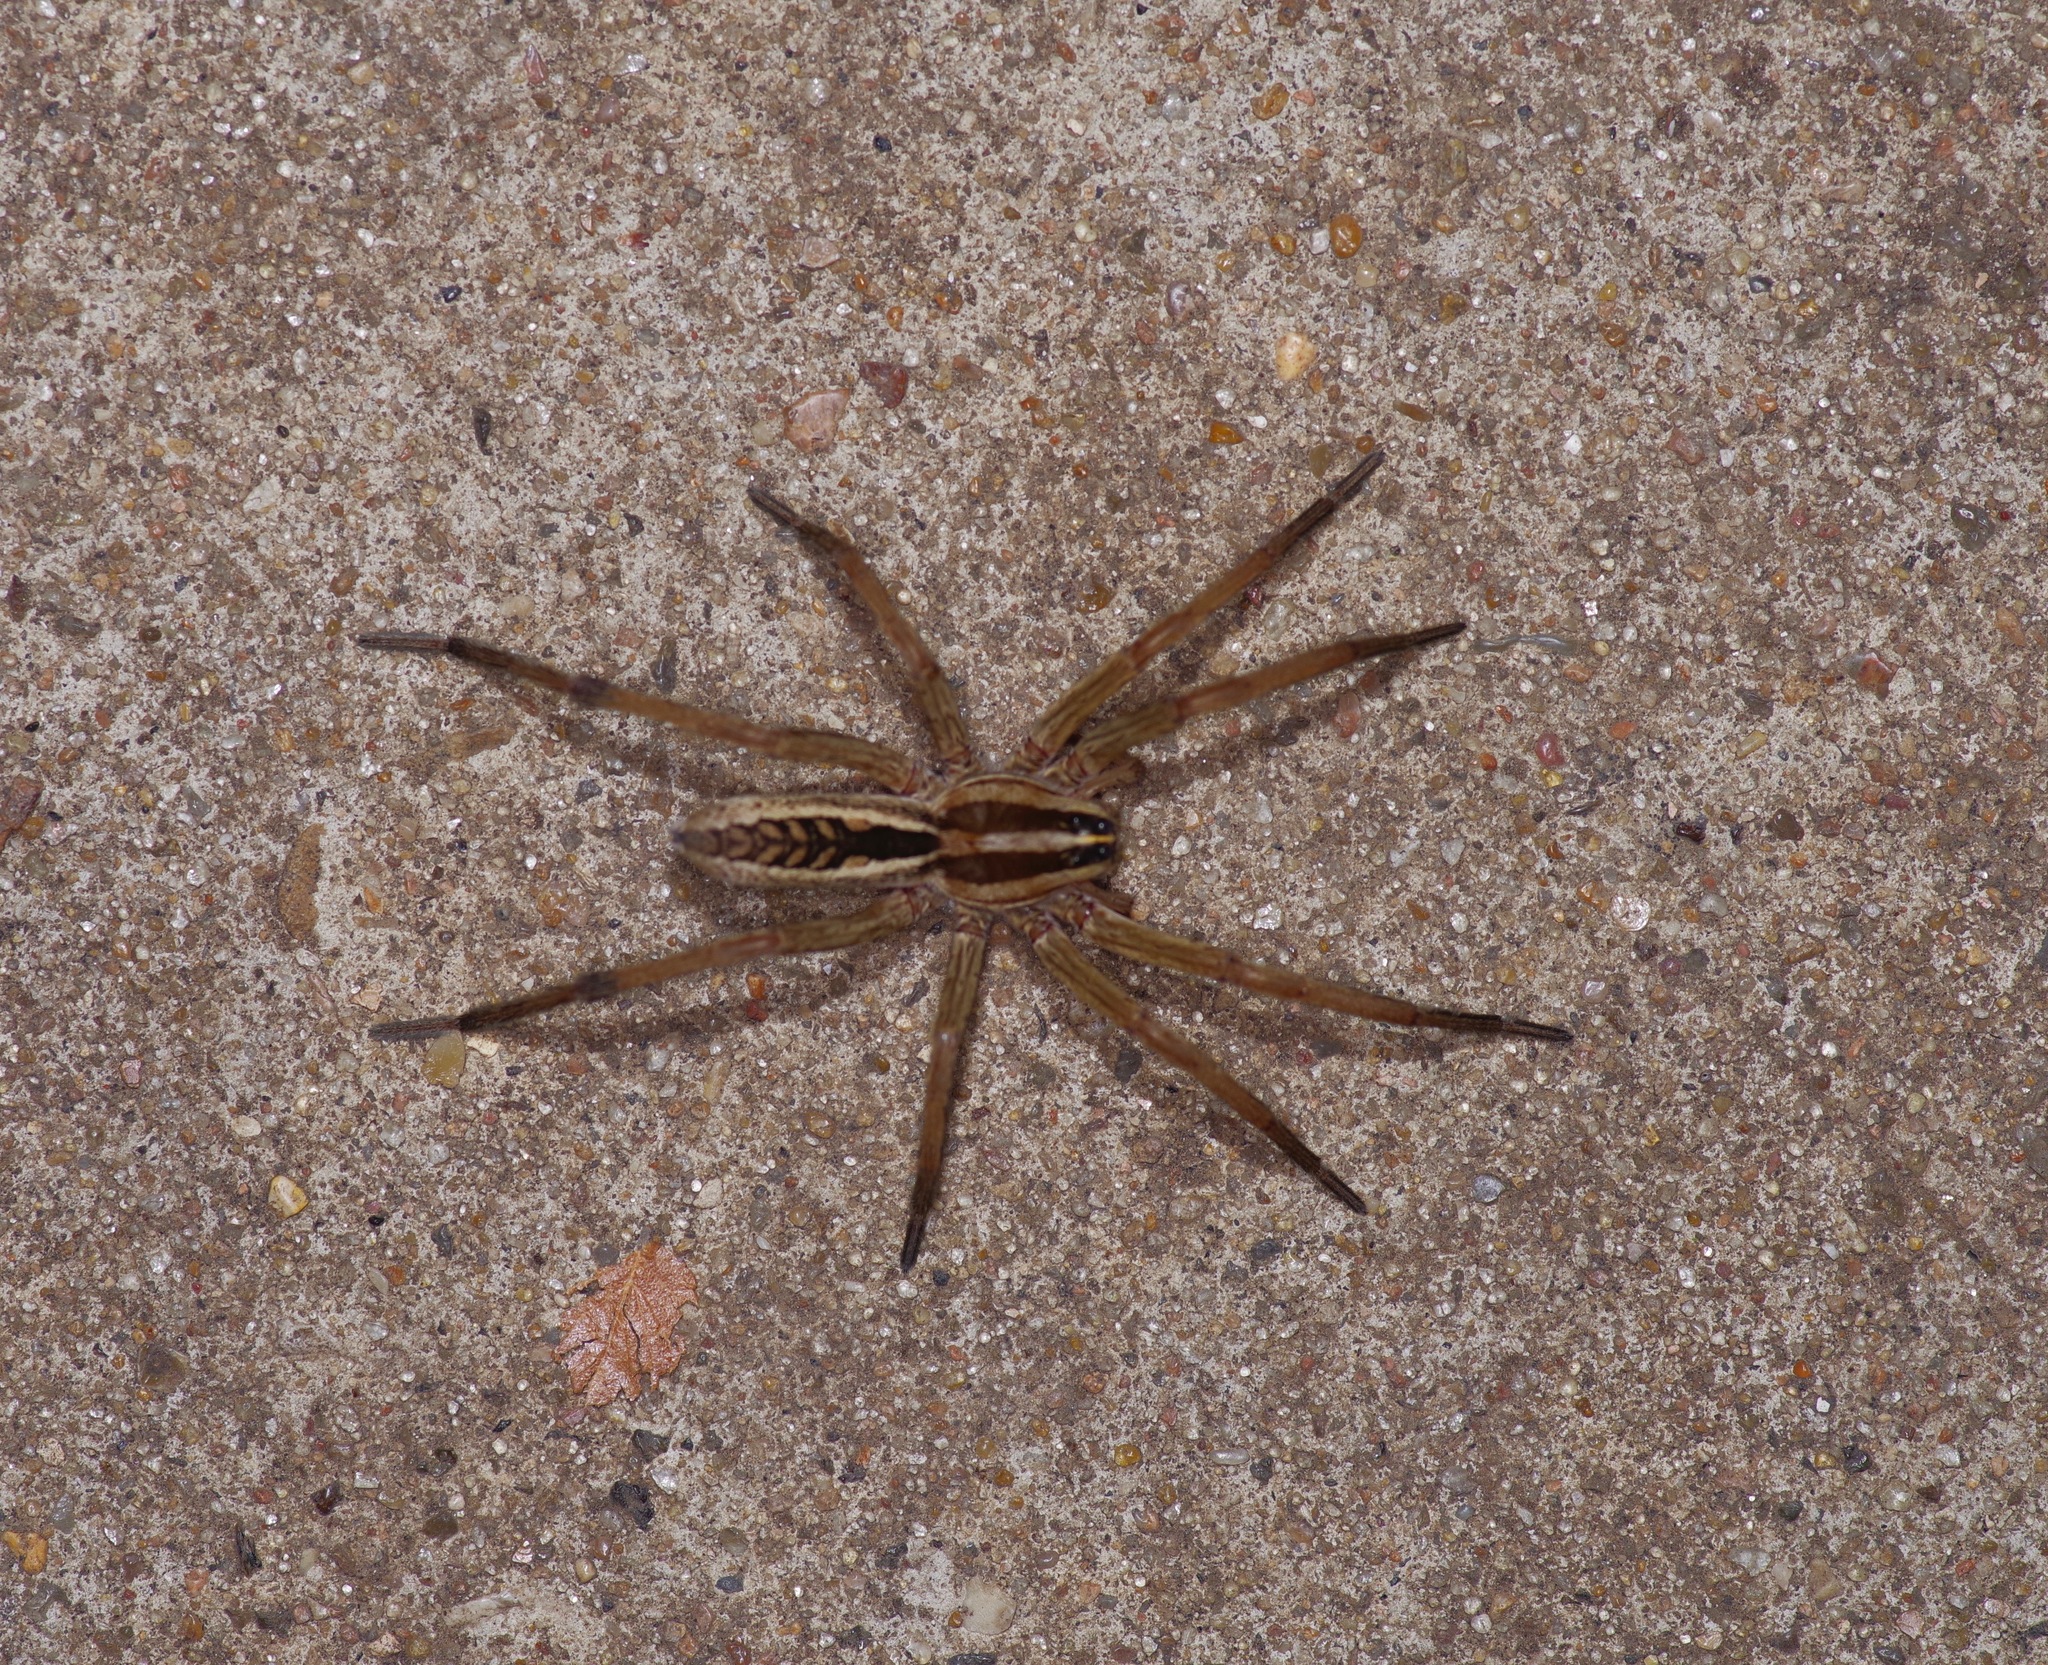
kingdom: Animalia
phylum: Arthropoda
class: Arachnida
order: Araneae
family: Lycosidae
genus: Rabidosa
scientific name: Rabidosa rabida
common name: Rabid wolf spider
